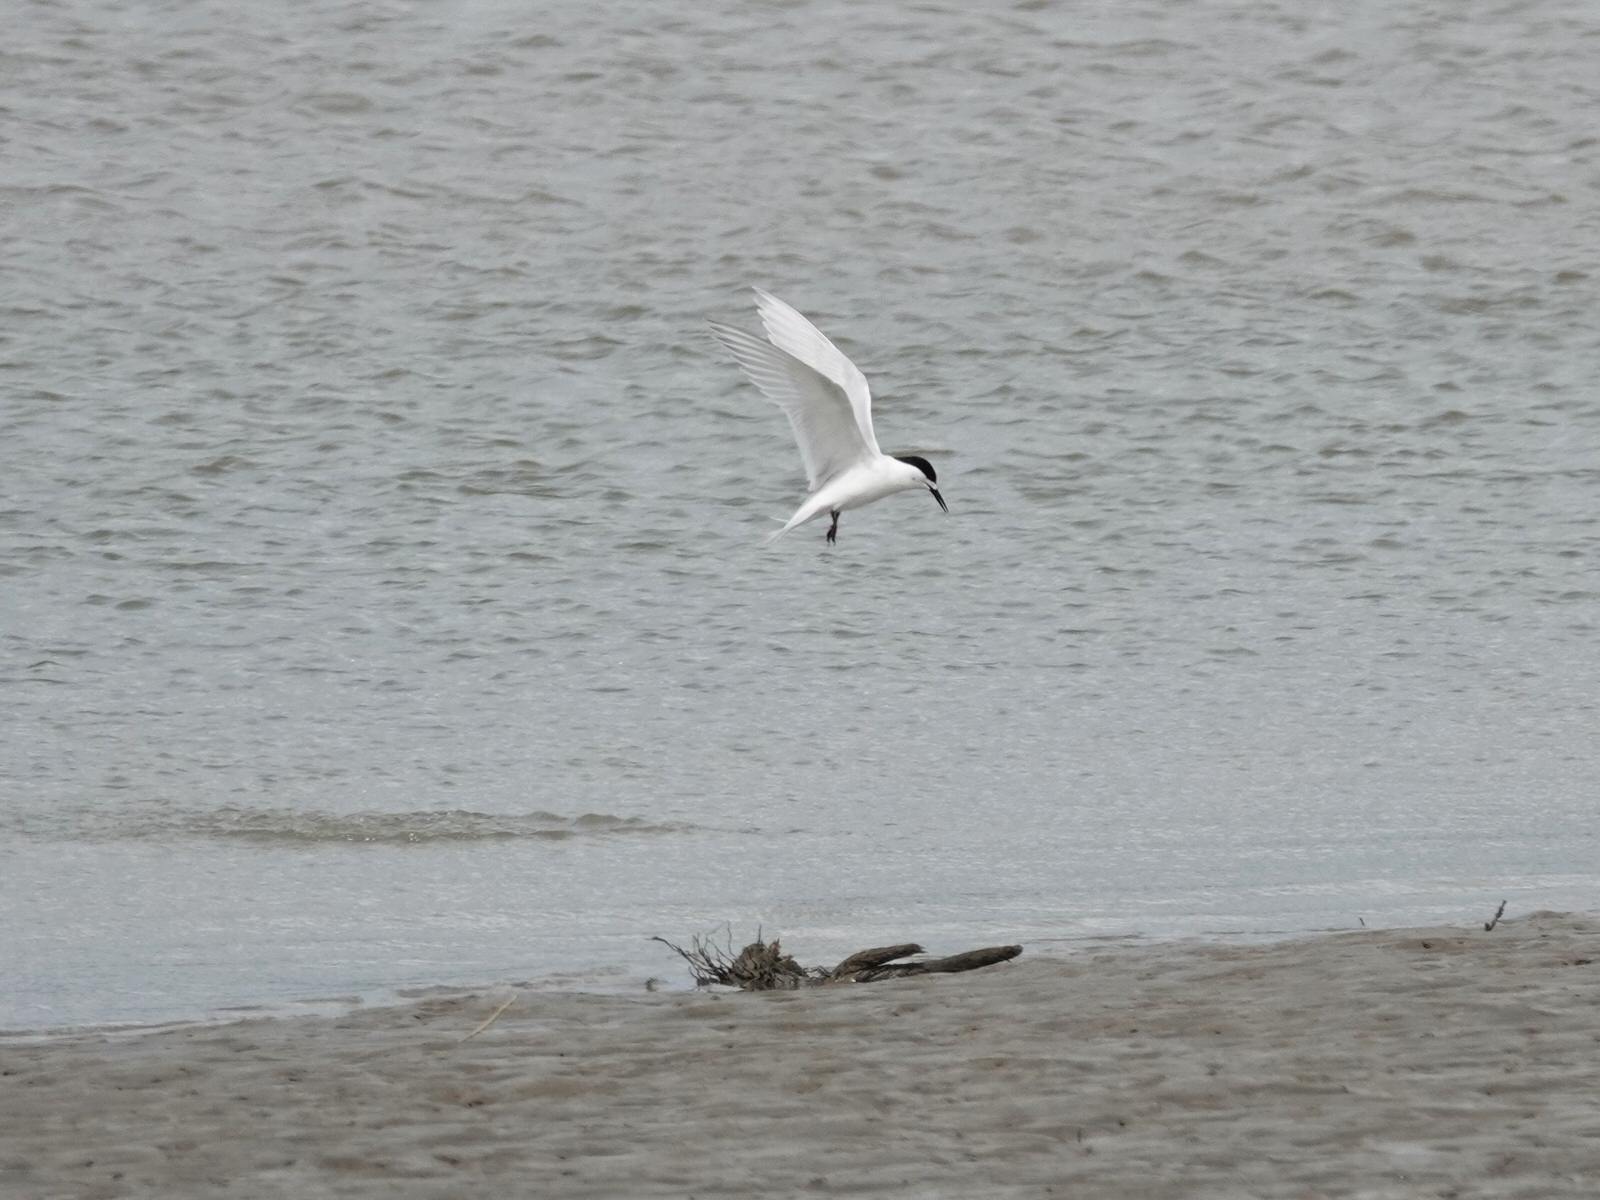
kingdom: Animalia
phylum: Chordata
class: Aves
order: Charadriiformes
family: Laridae
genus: Sterna
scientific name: Sterna striata
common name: White-fronted tern
